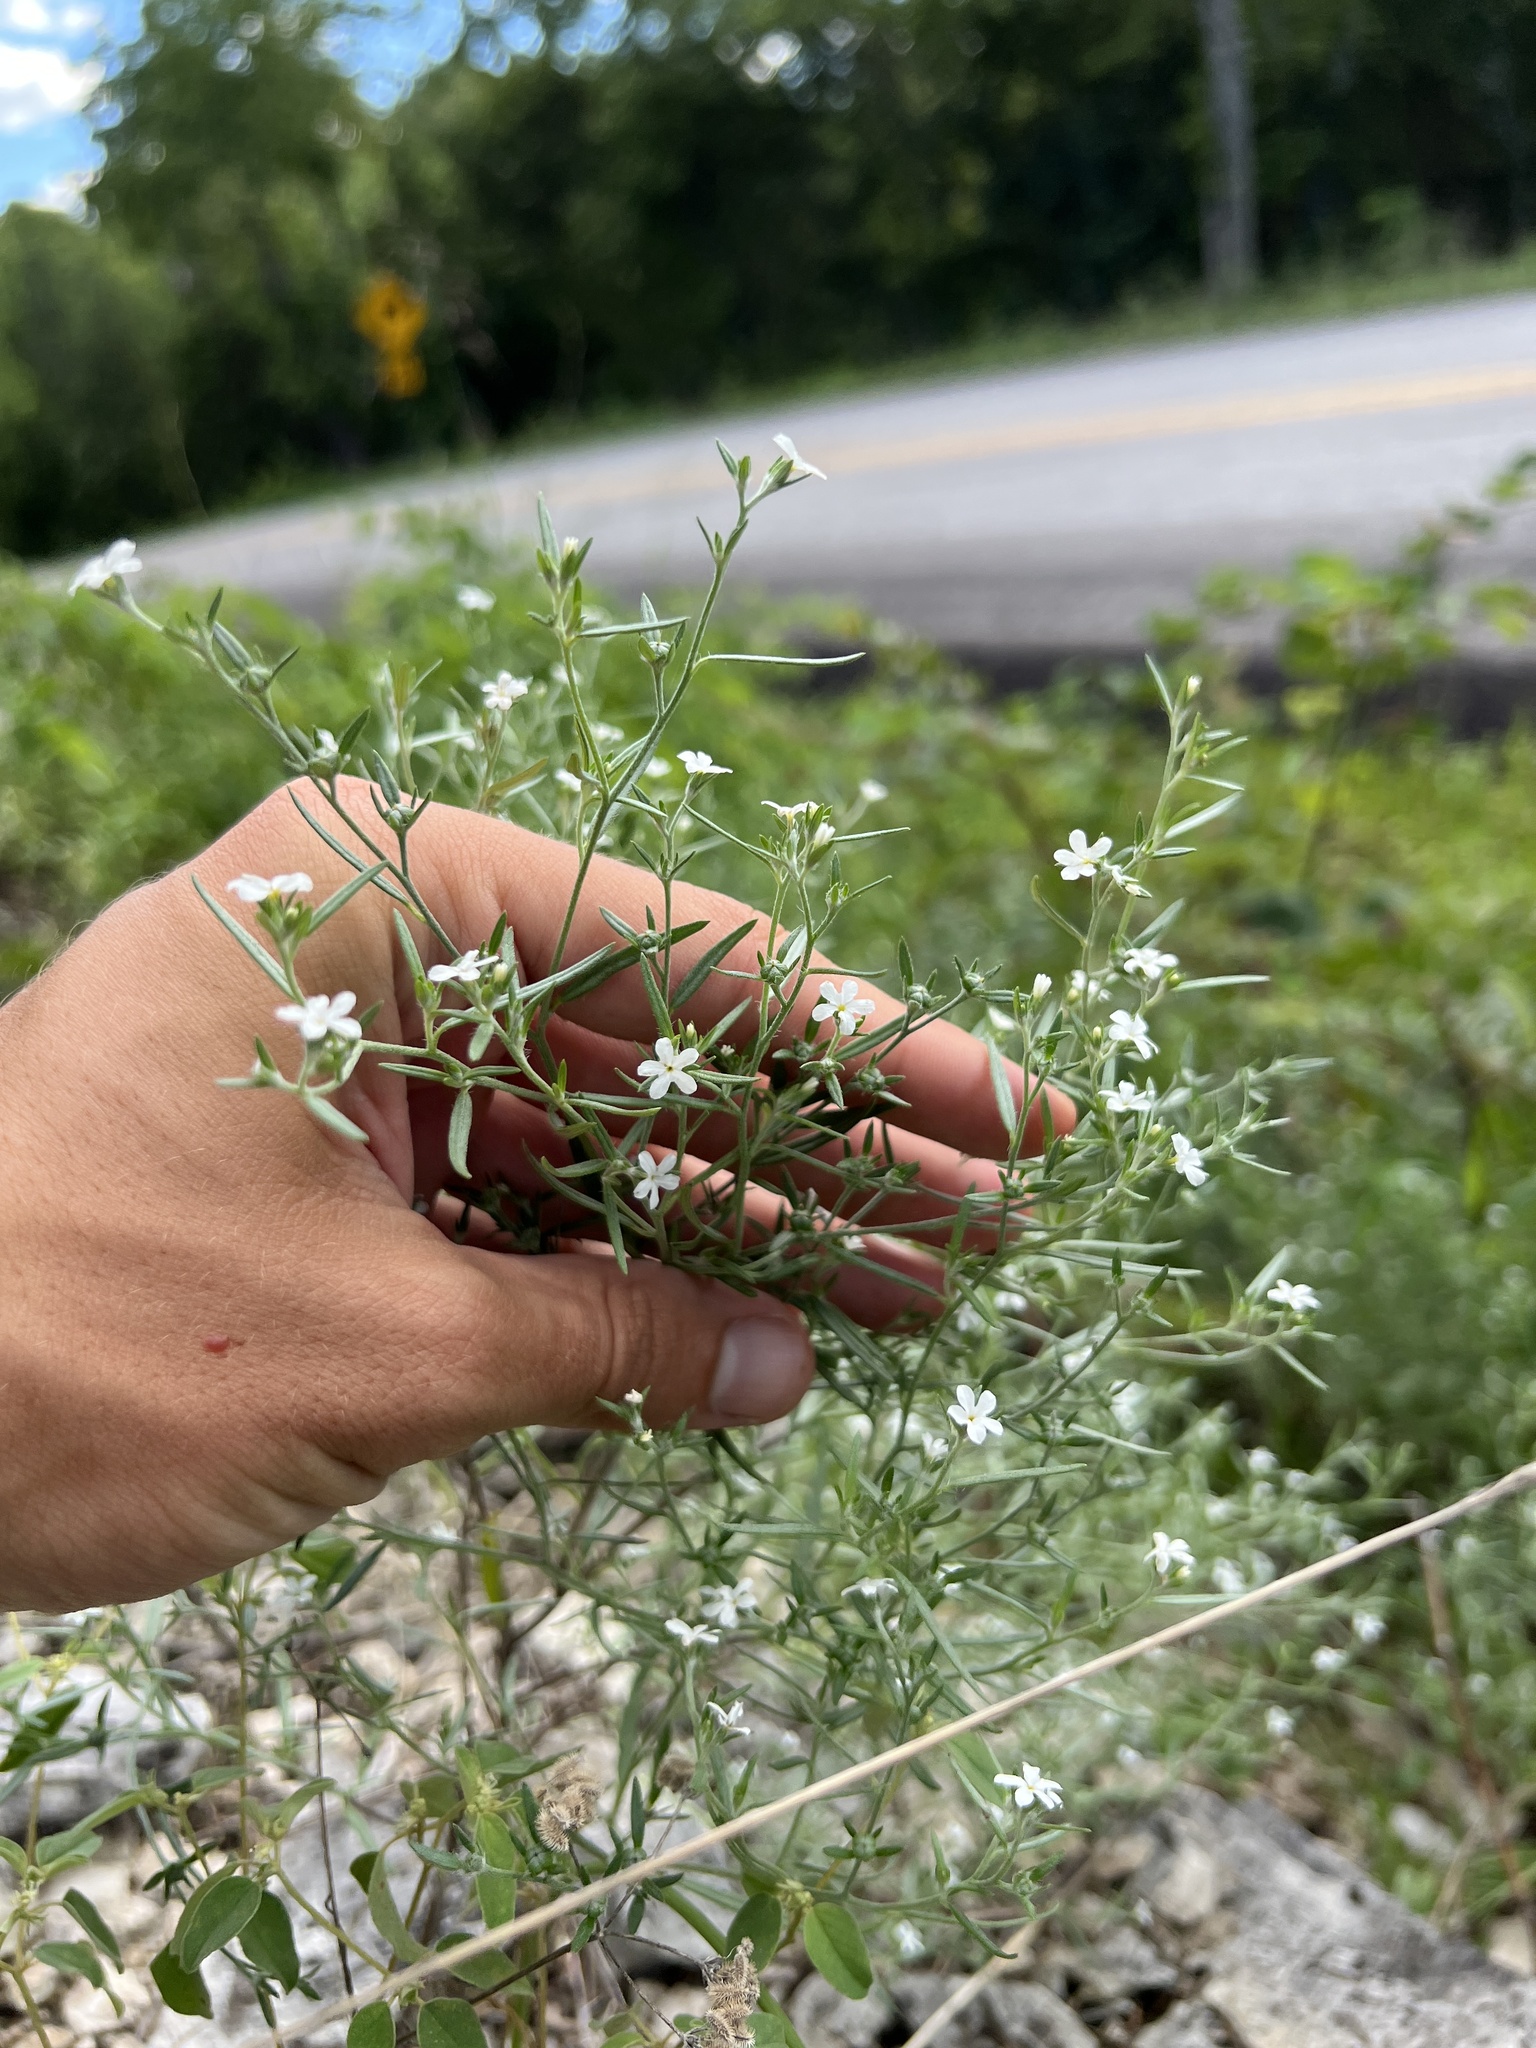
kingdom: Plantae
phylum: Tracheophyta
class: Magnoliopsida
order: Boraginales
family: Heliotropiaceae
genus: Euploca
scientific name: Euploca tenella
